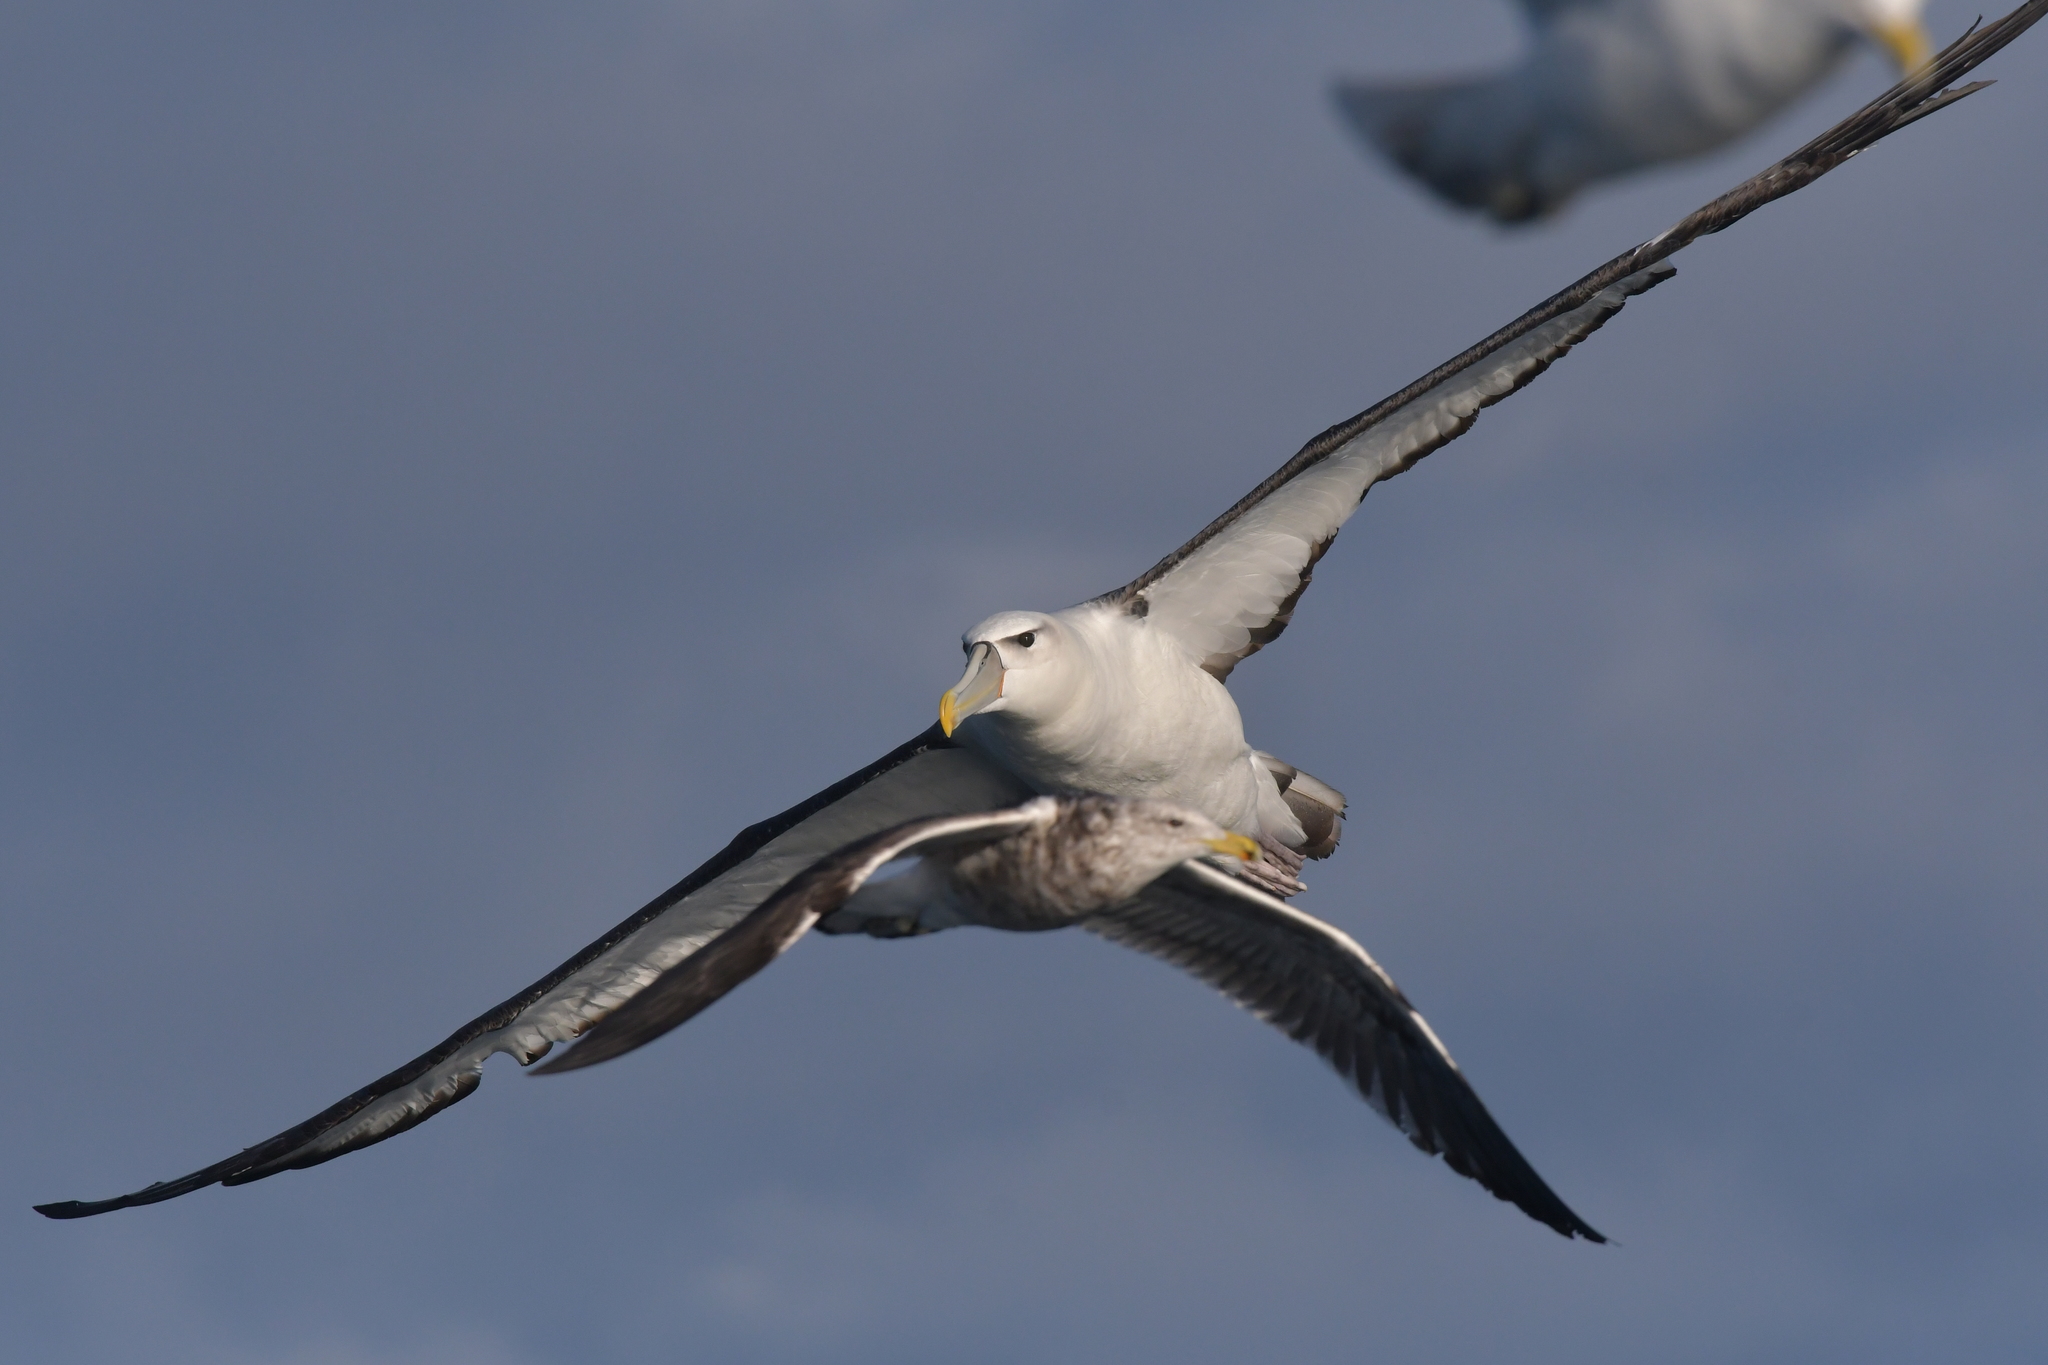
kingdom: Animalia
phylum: Chordata
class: Aves
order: Procellariiformes
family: Diomedeidae
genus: Thalassarche
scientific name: Thalassarche cauta
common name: Shy albatross
